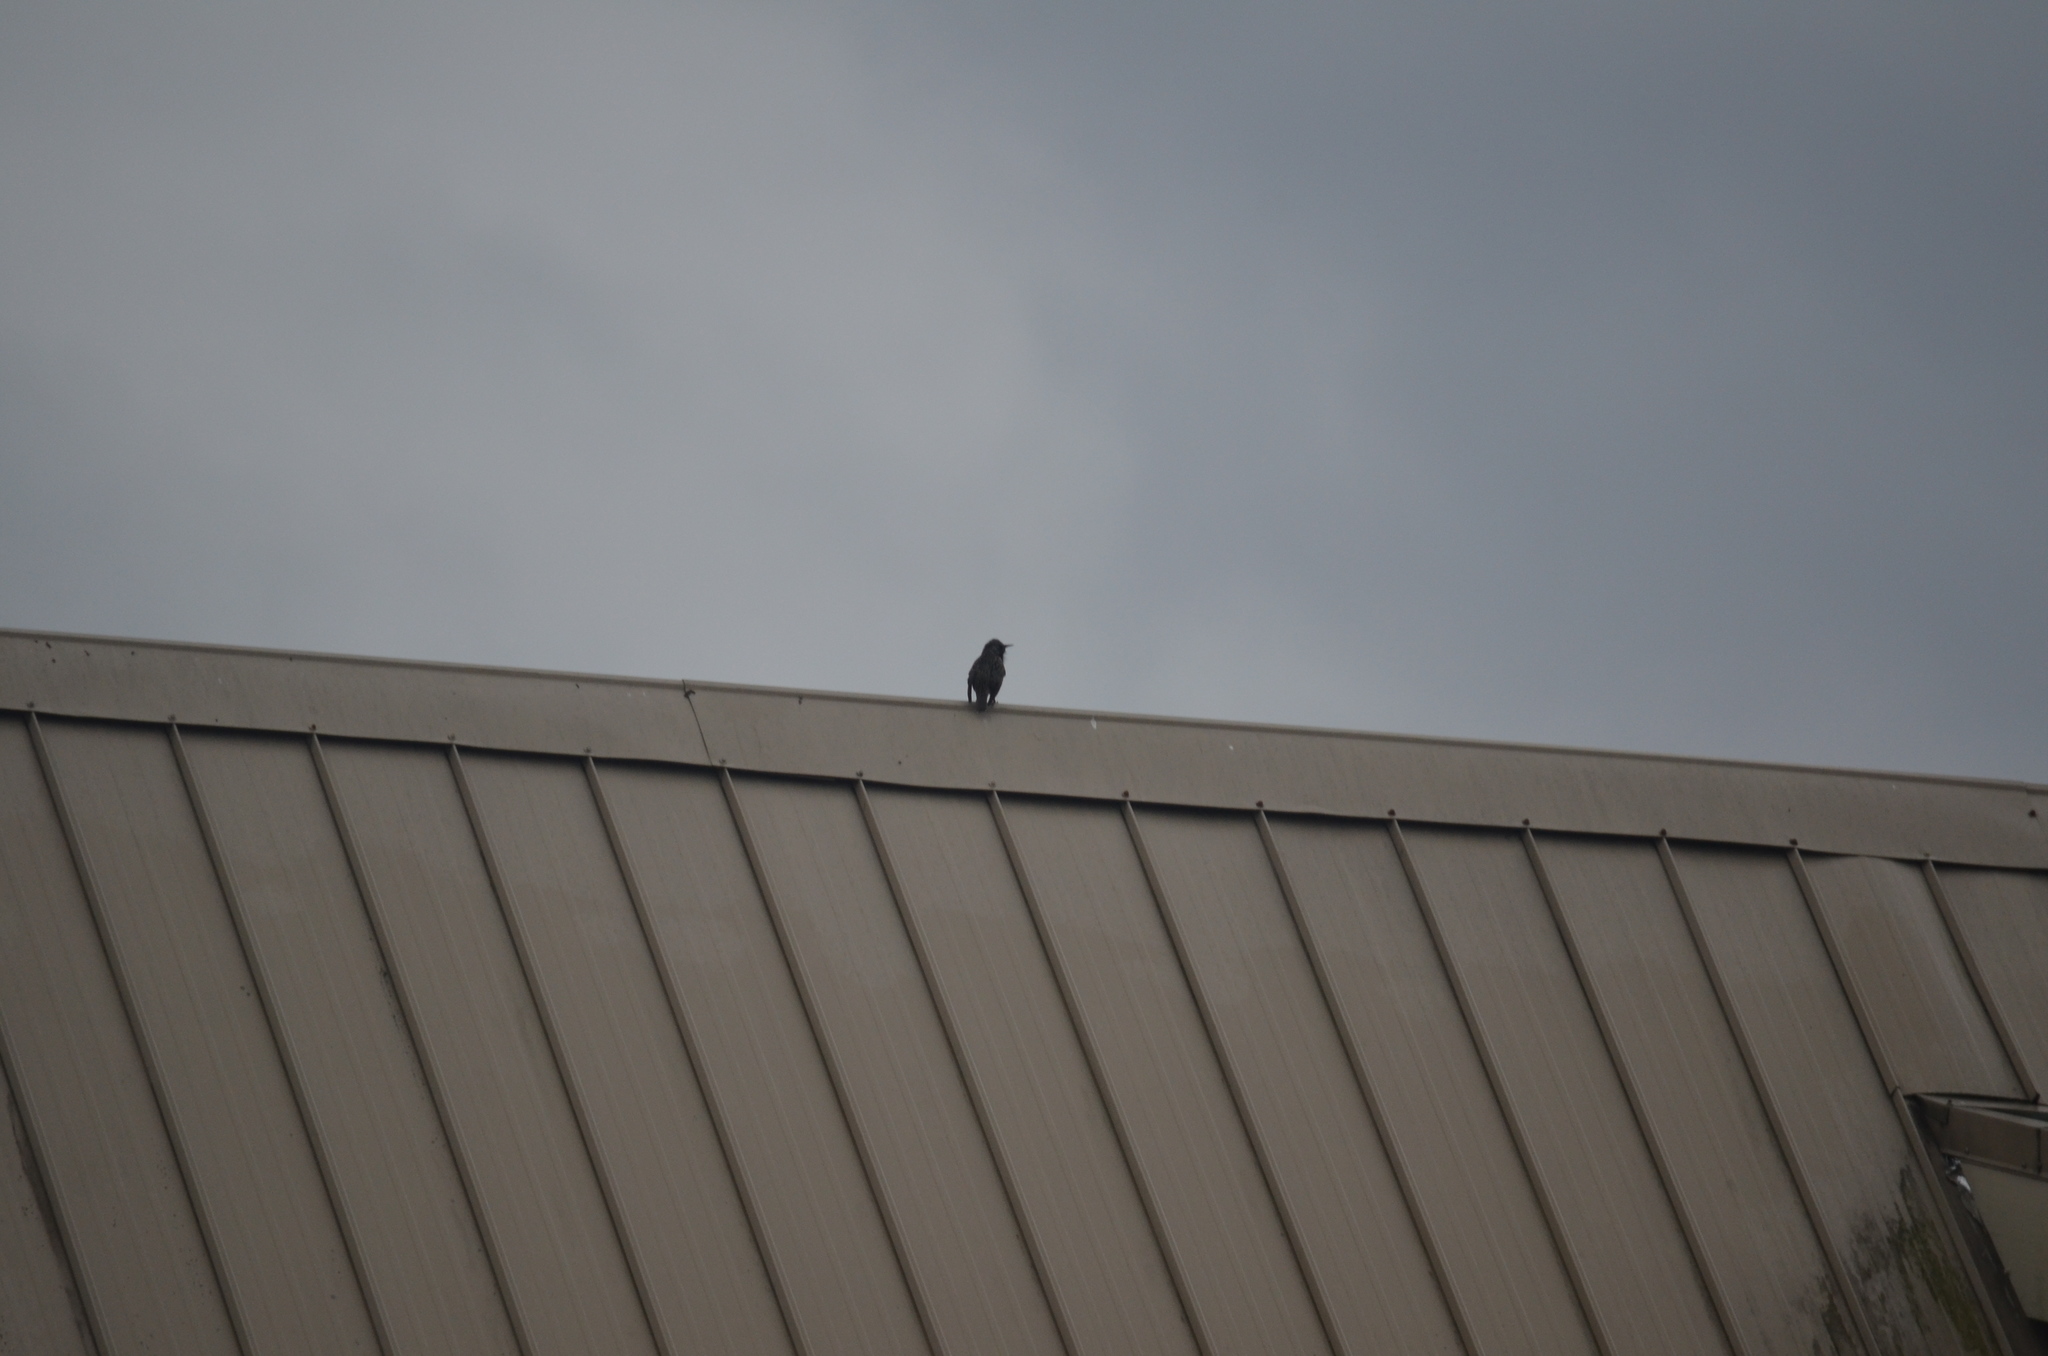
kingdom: Animalia
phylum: Chordata
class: Aves
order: Passeriformes
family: Sturnidae
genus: Sturnus
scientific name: Sturnus vulgaris
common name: Common starling
